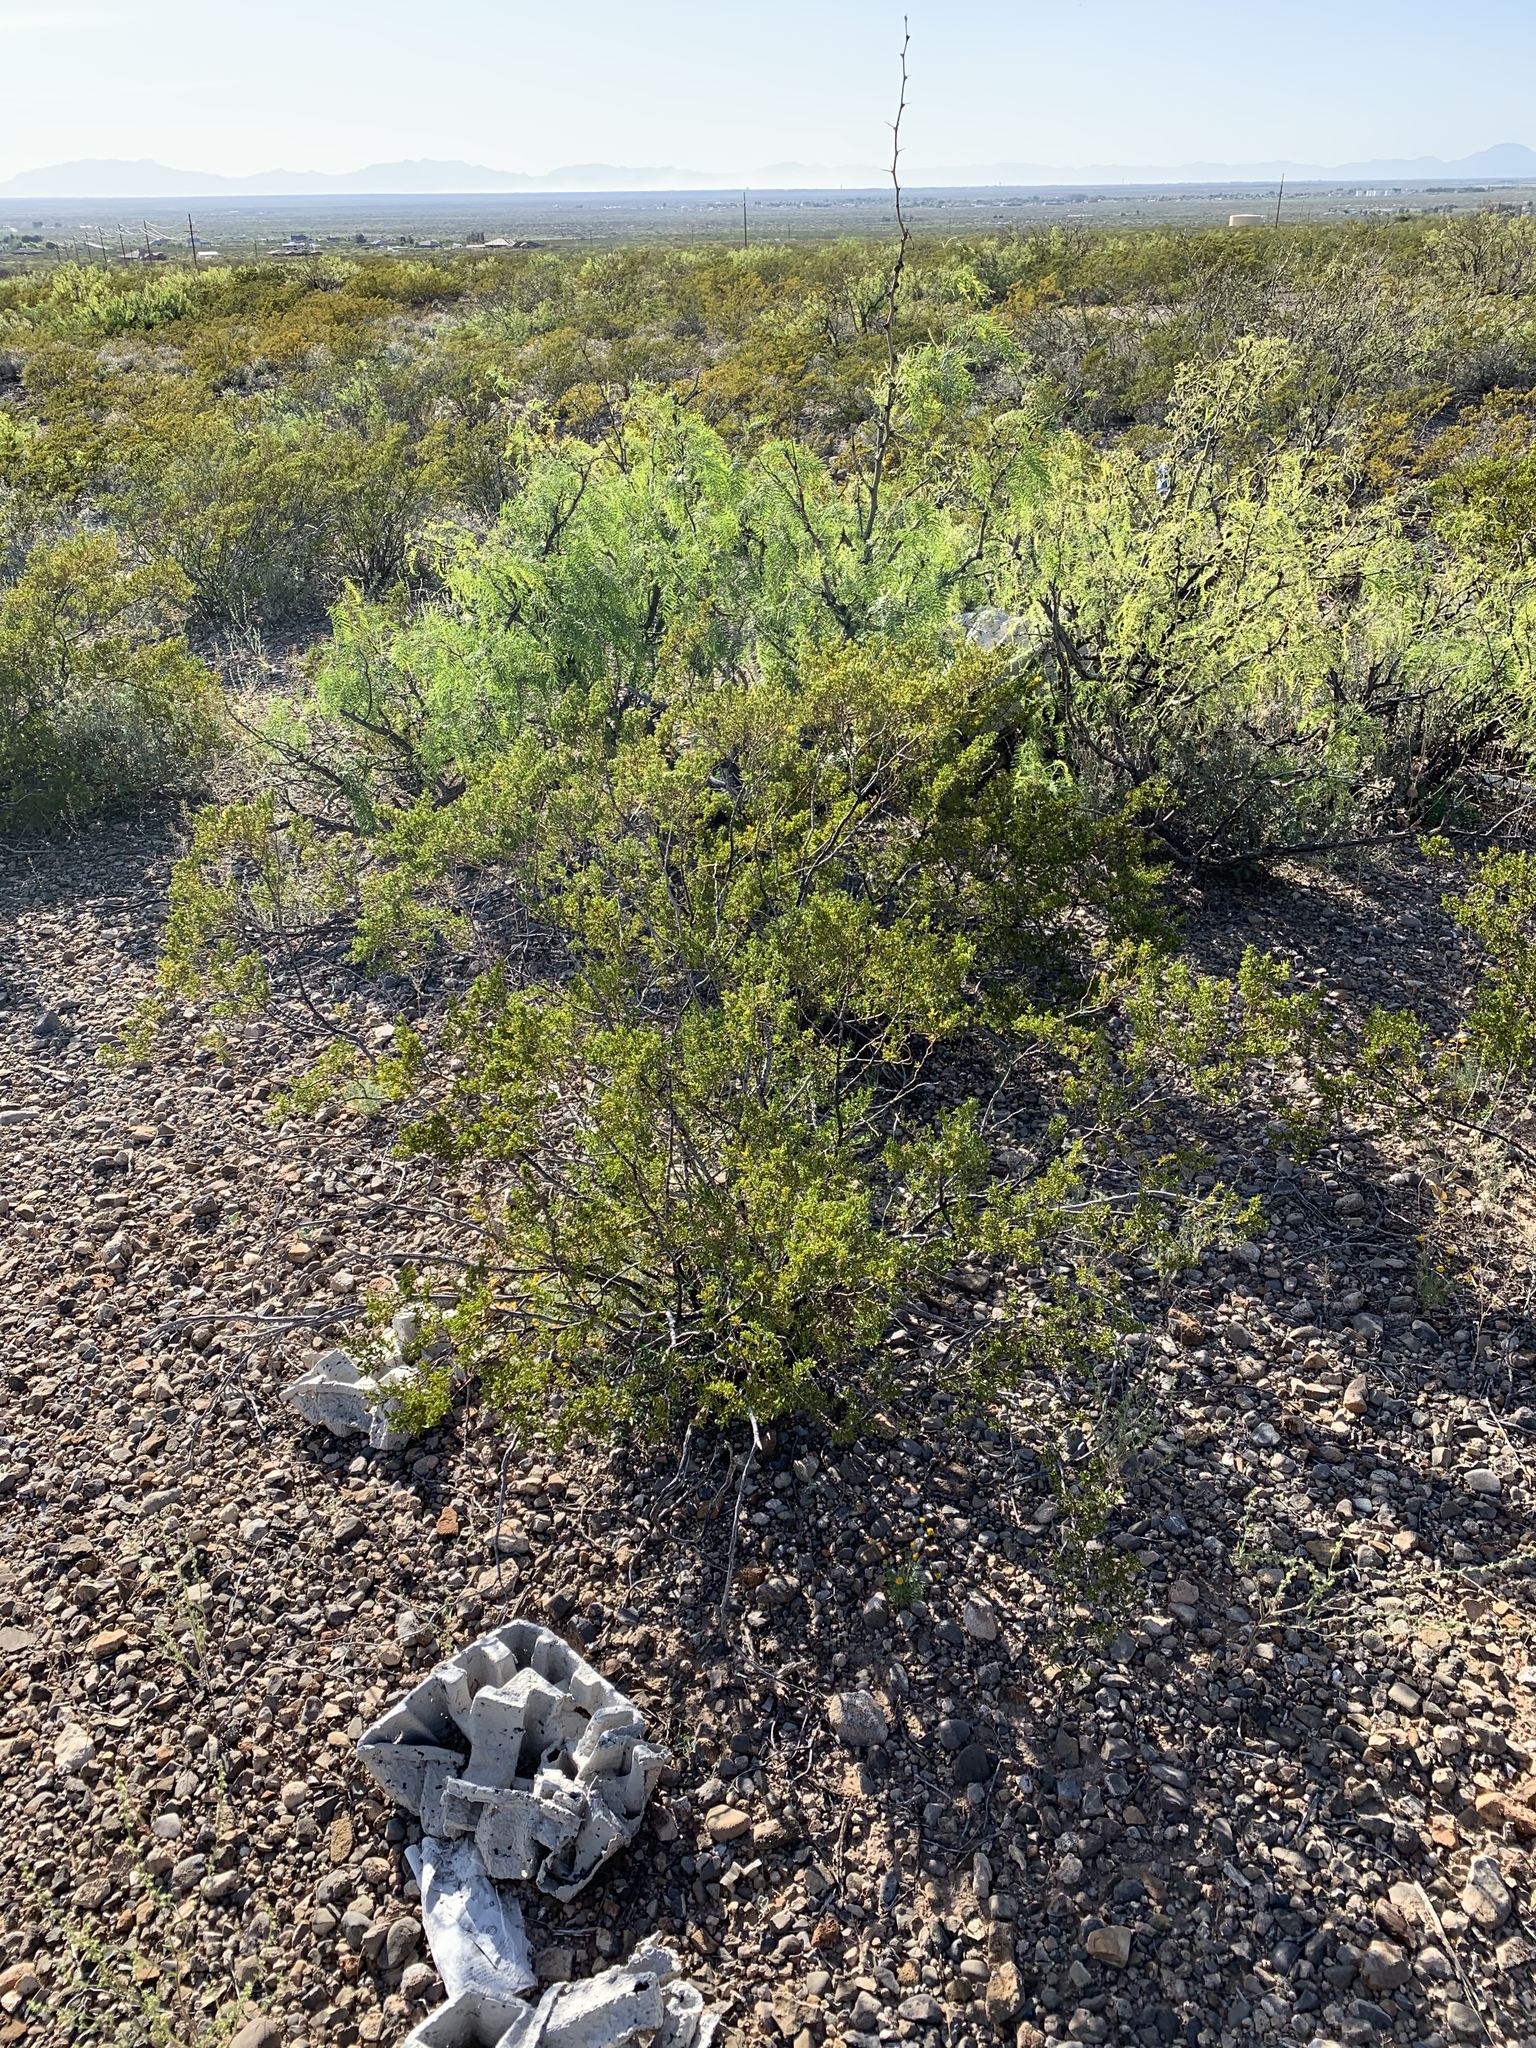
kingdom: Plantae
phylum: Tracheophyta
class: Magnoliopsida
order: Zygophyllales
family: Zygophyllaceae
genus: Larrea
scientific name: Larrea tridentata
